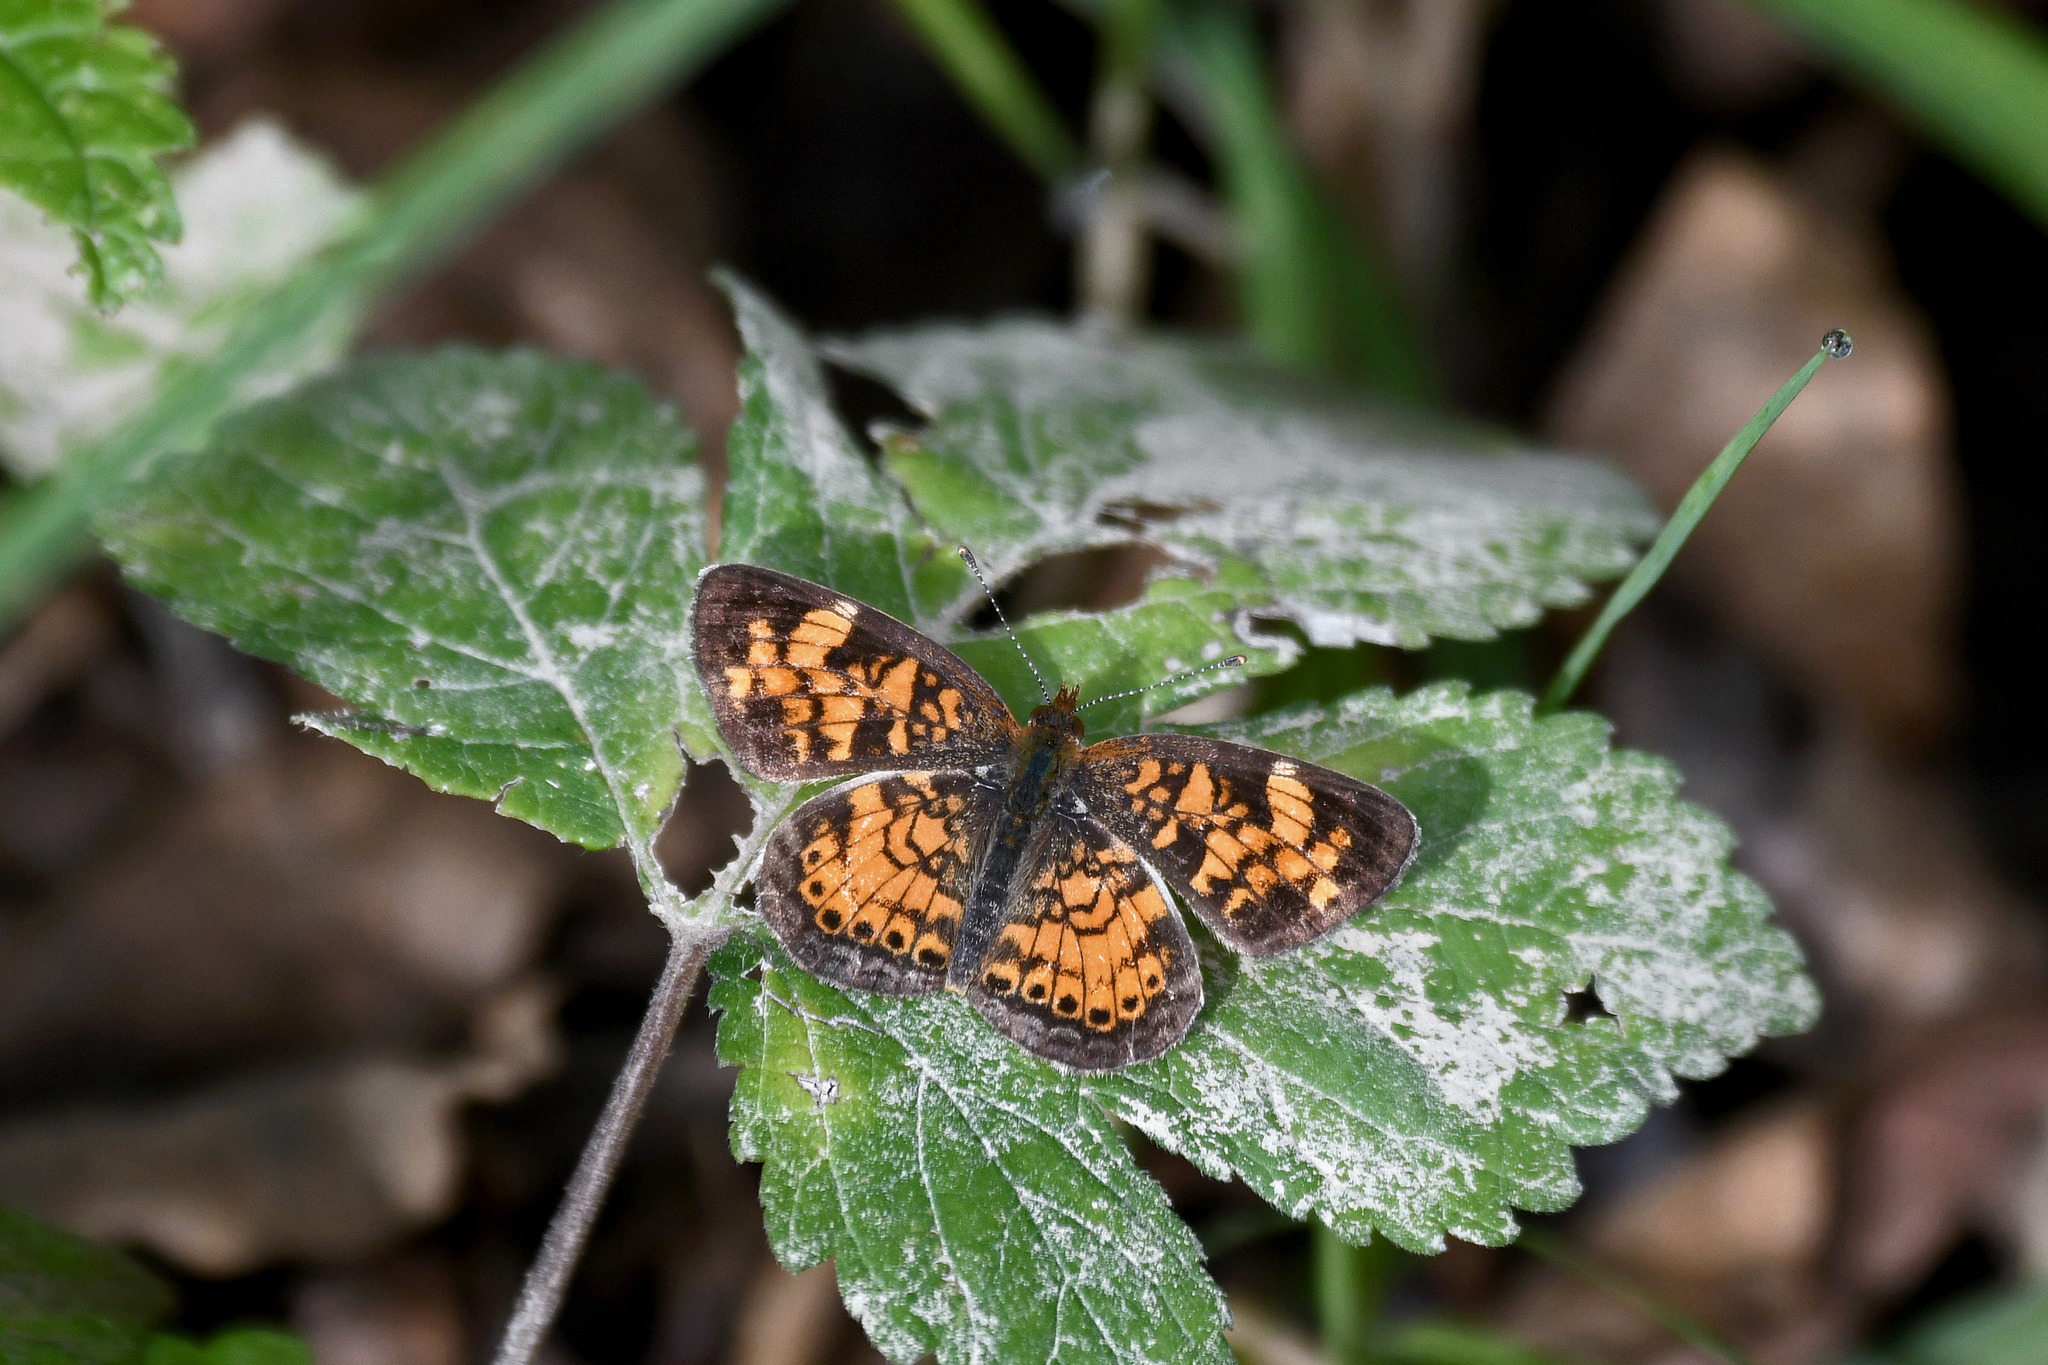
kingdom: Animalia
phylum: Arthropoda
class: Insecta
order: Lepidoptera
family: Nymphalidae
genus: Phyciodes
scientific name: Phyciodes tharos
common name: Pearl crescent
